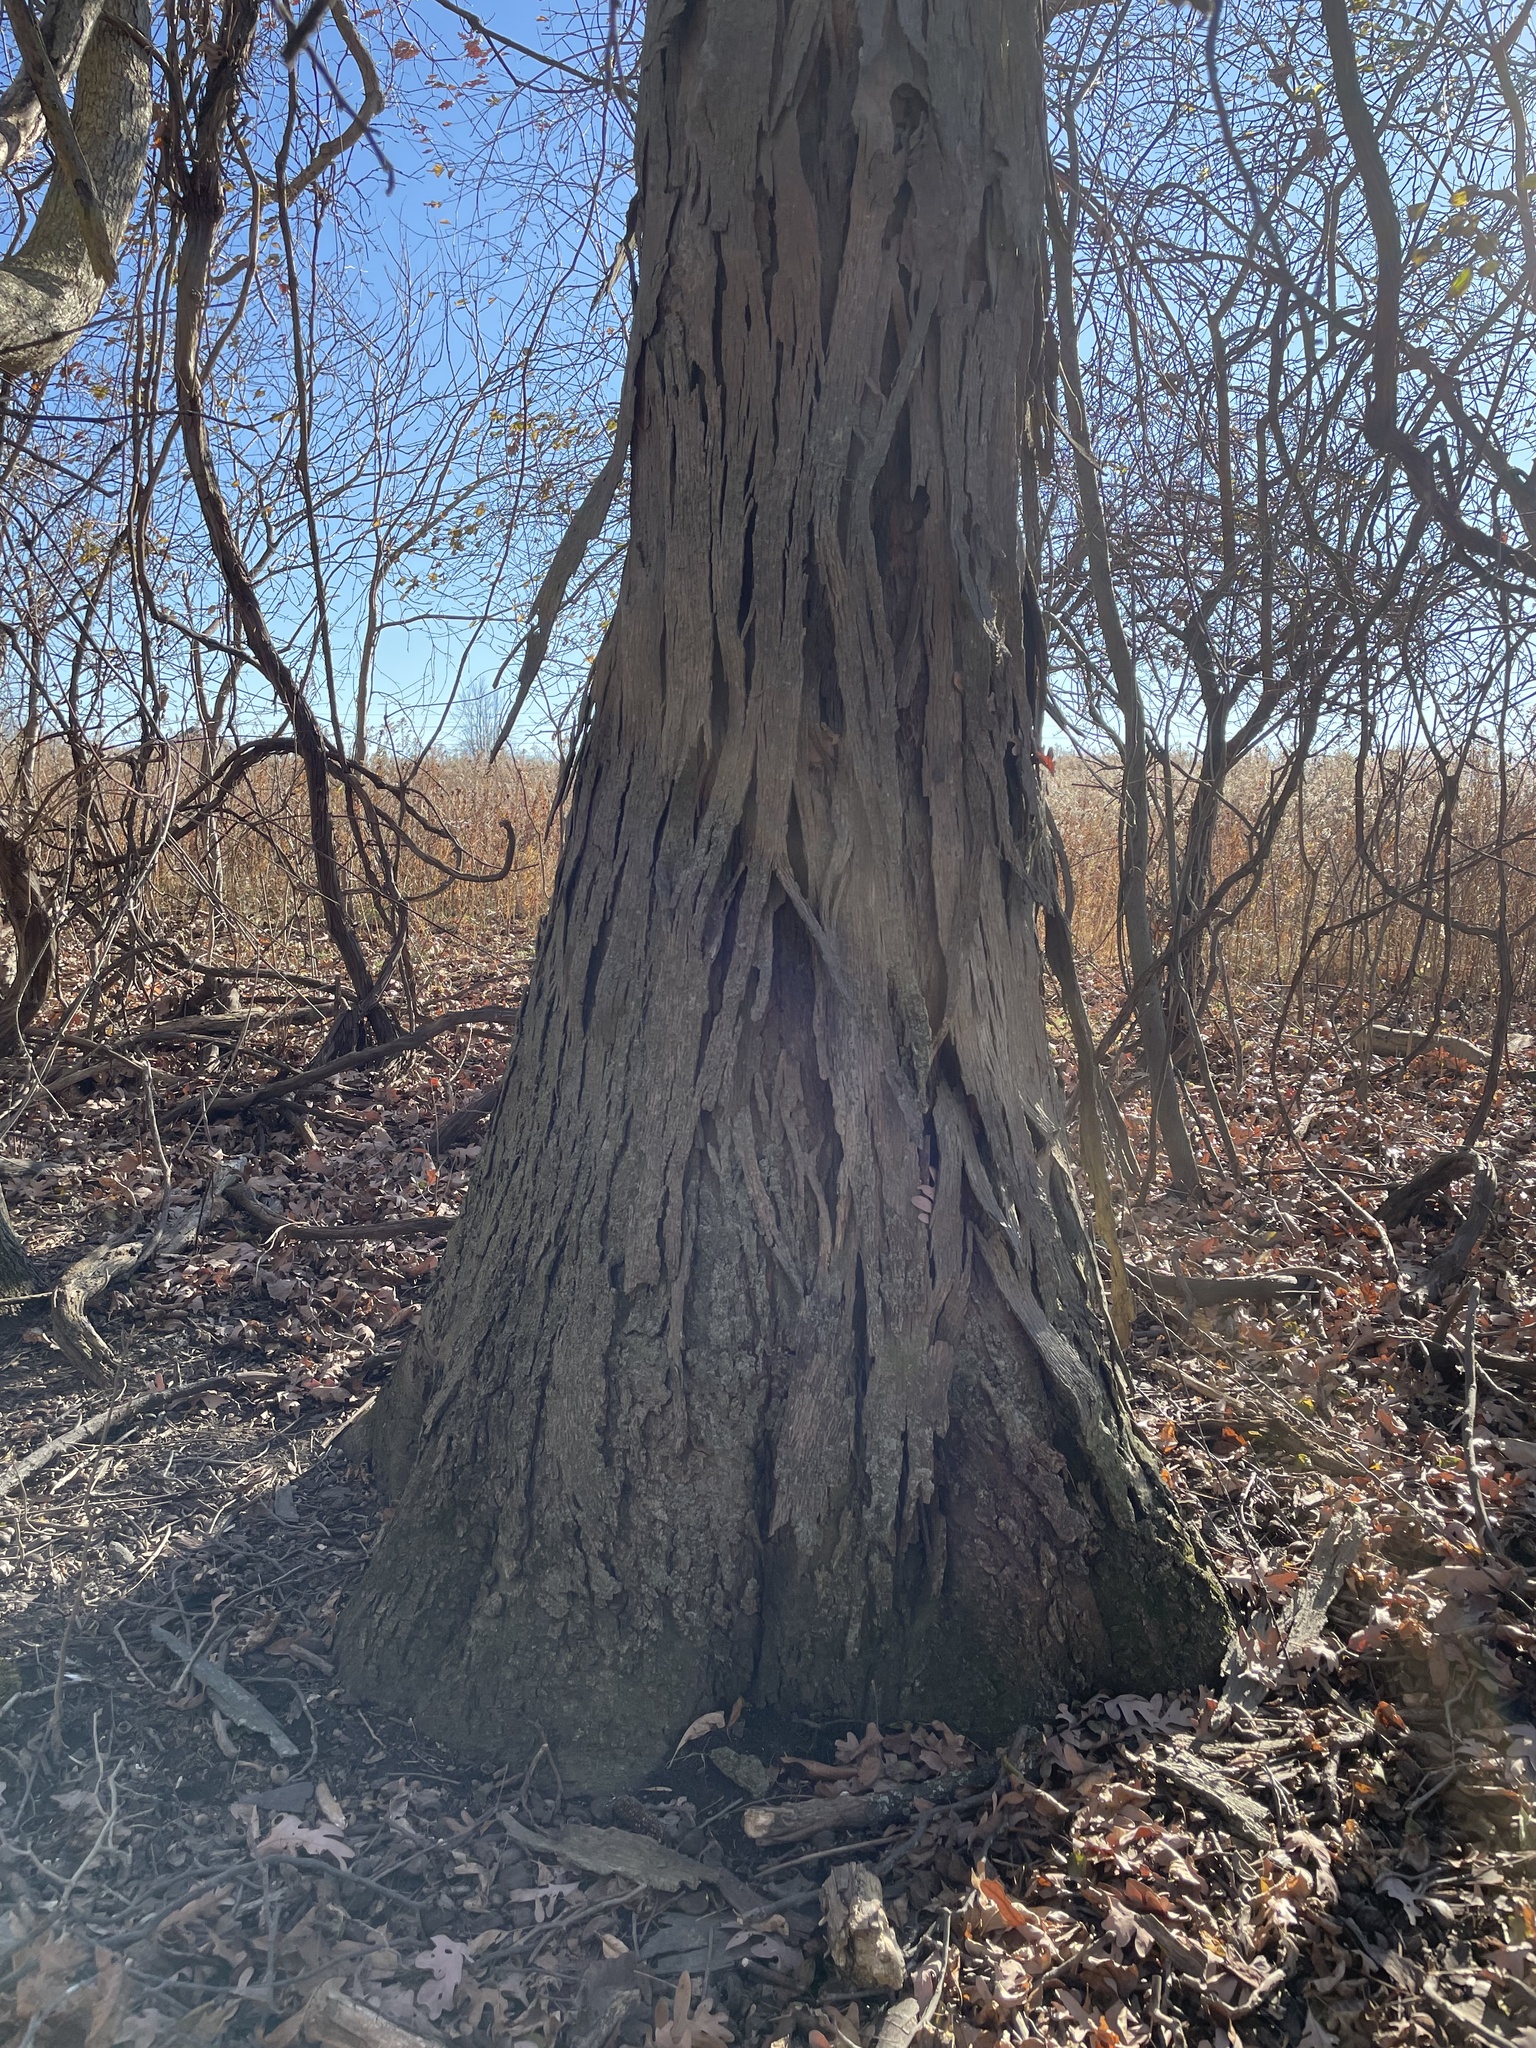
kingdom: Plantae
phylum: Tracheophyta
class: Magnoliopsida
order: Fagales
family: Juglandaceae
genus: Carya
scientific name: Carya ovata
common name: Shagbark hickory
